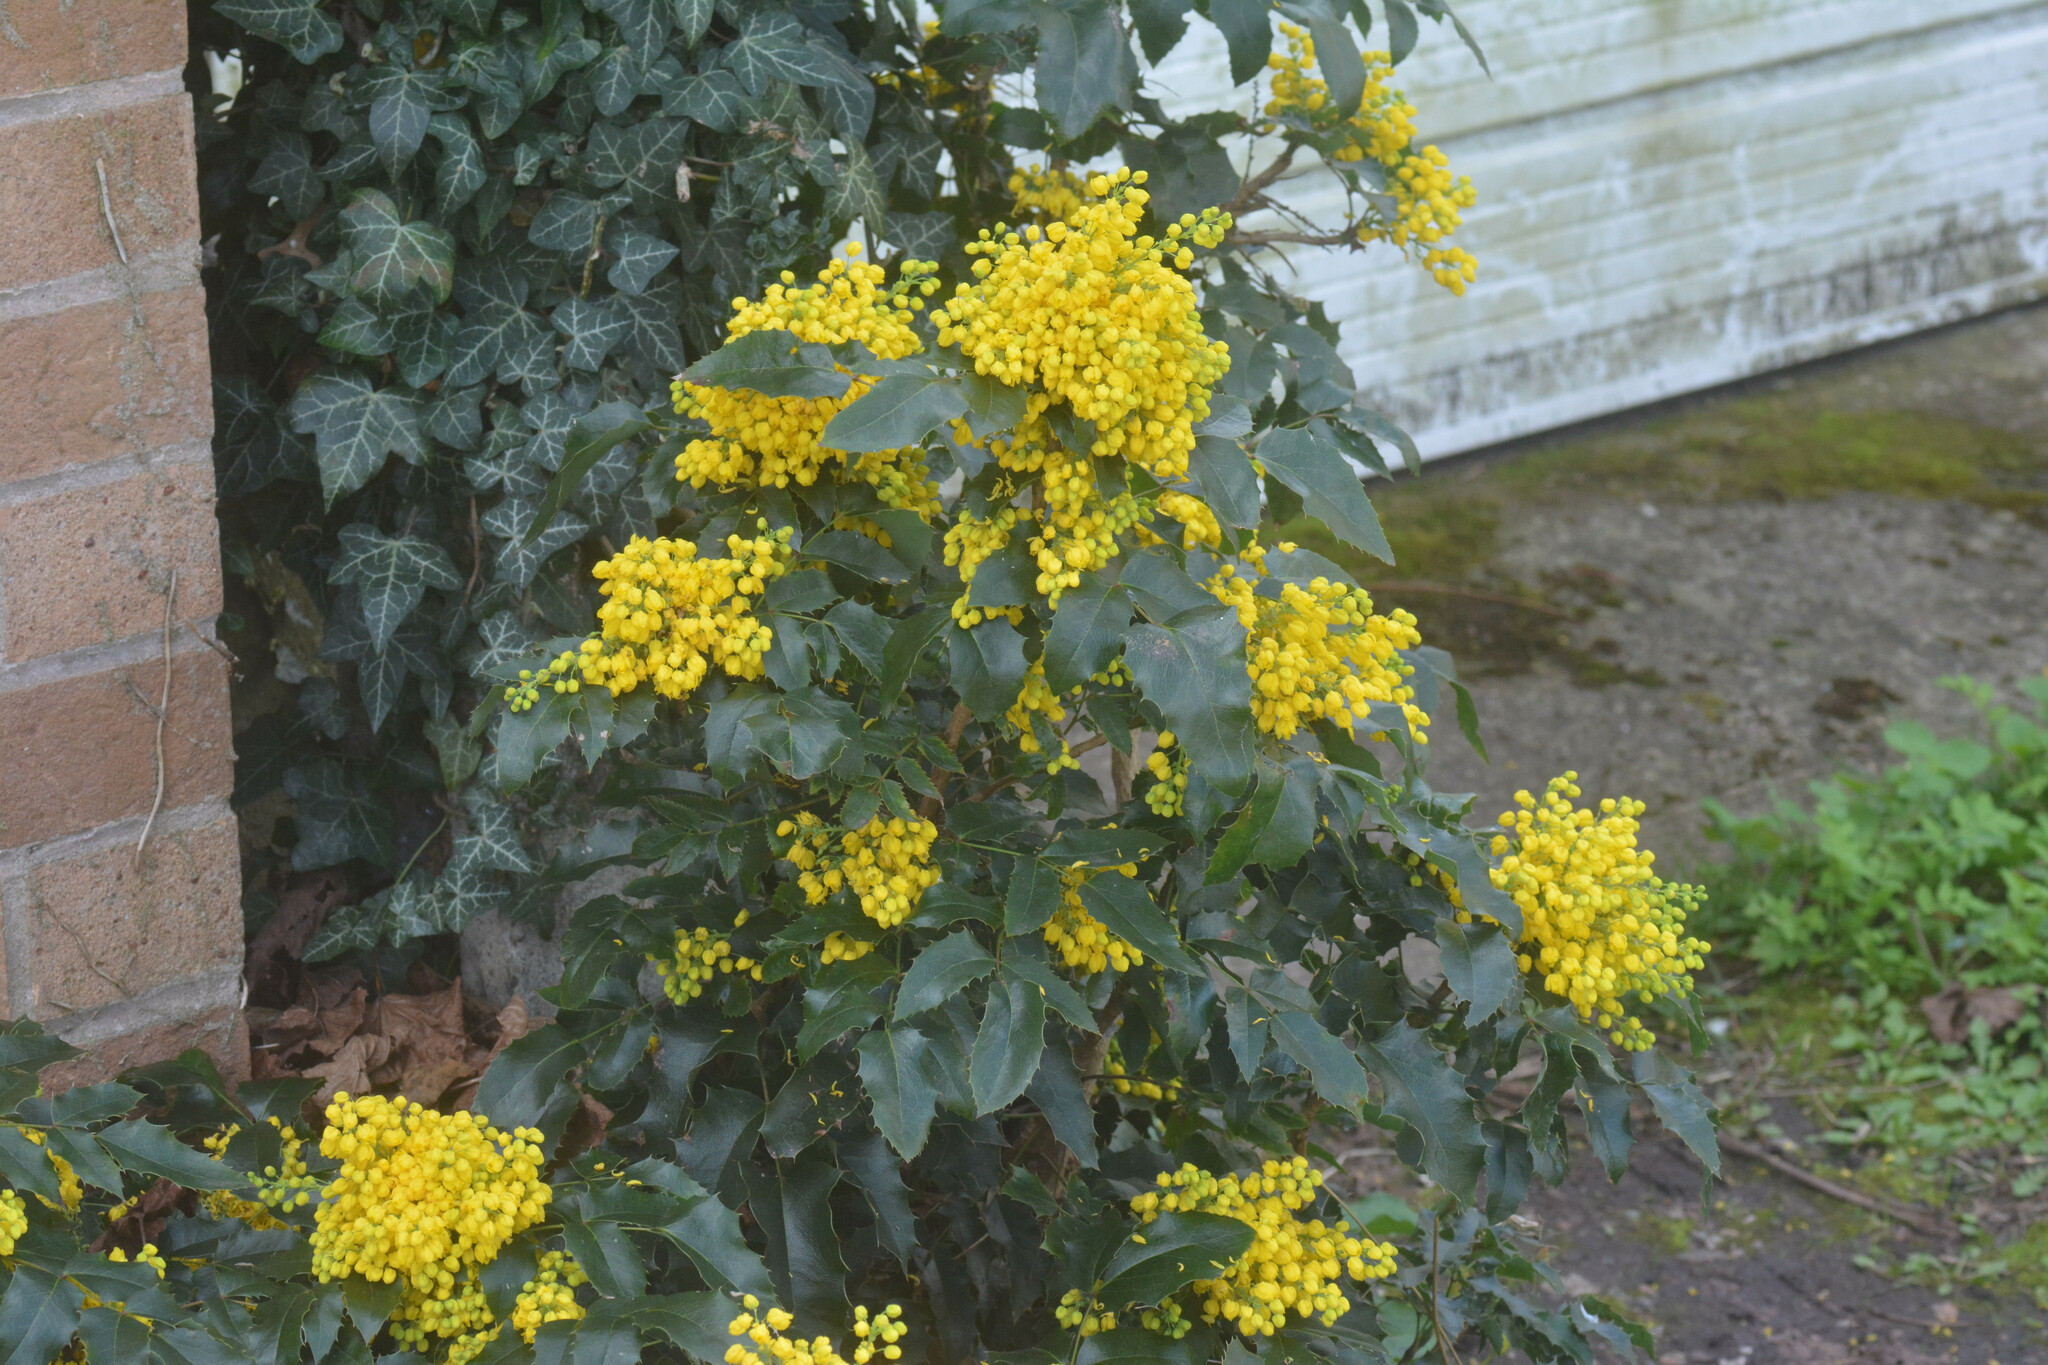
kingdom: Plantae
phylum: Tracheophyta
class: Magnoliopsida
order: Ranunculales
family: Berberidaceae
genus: Mahonia
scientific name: Mahonia aquifolium
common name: Oregon-grape
